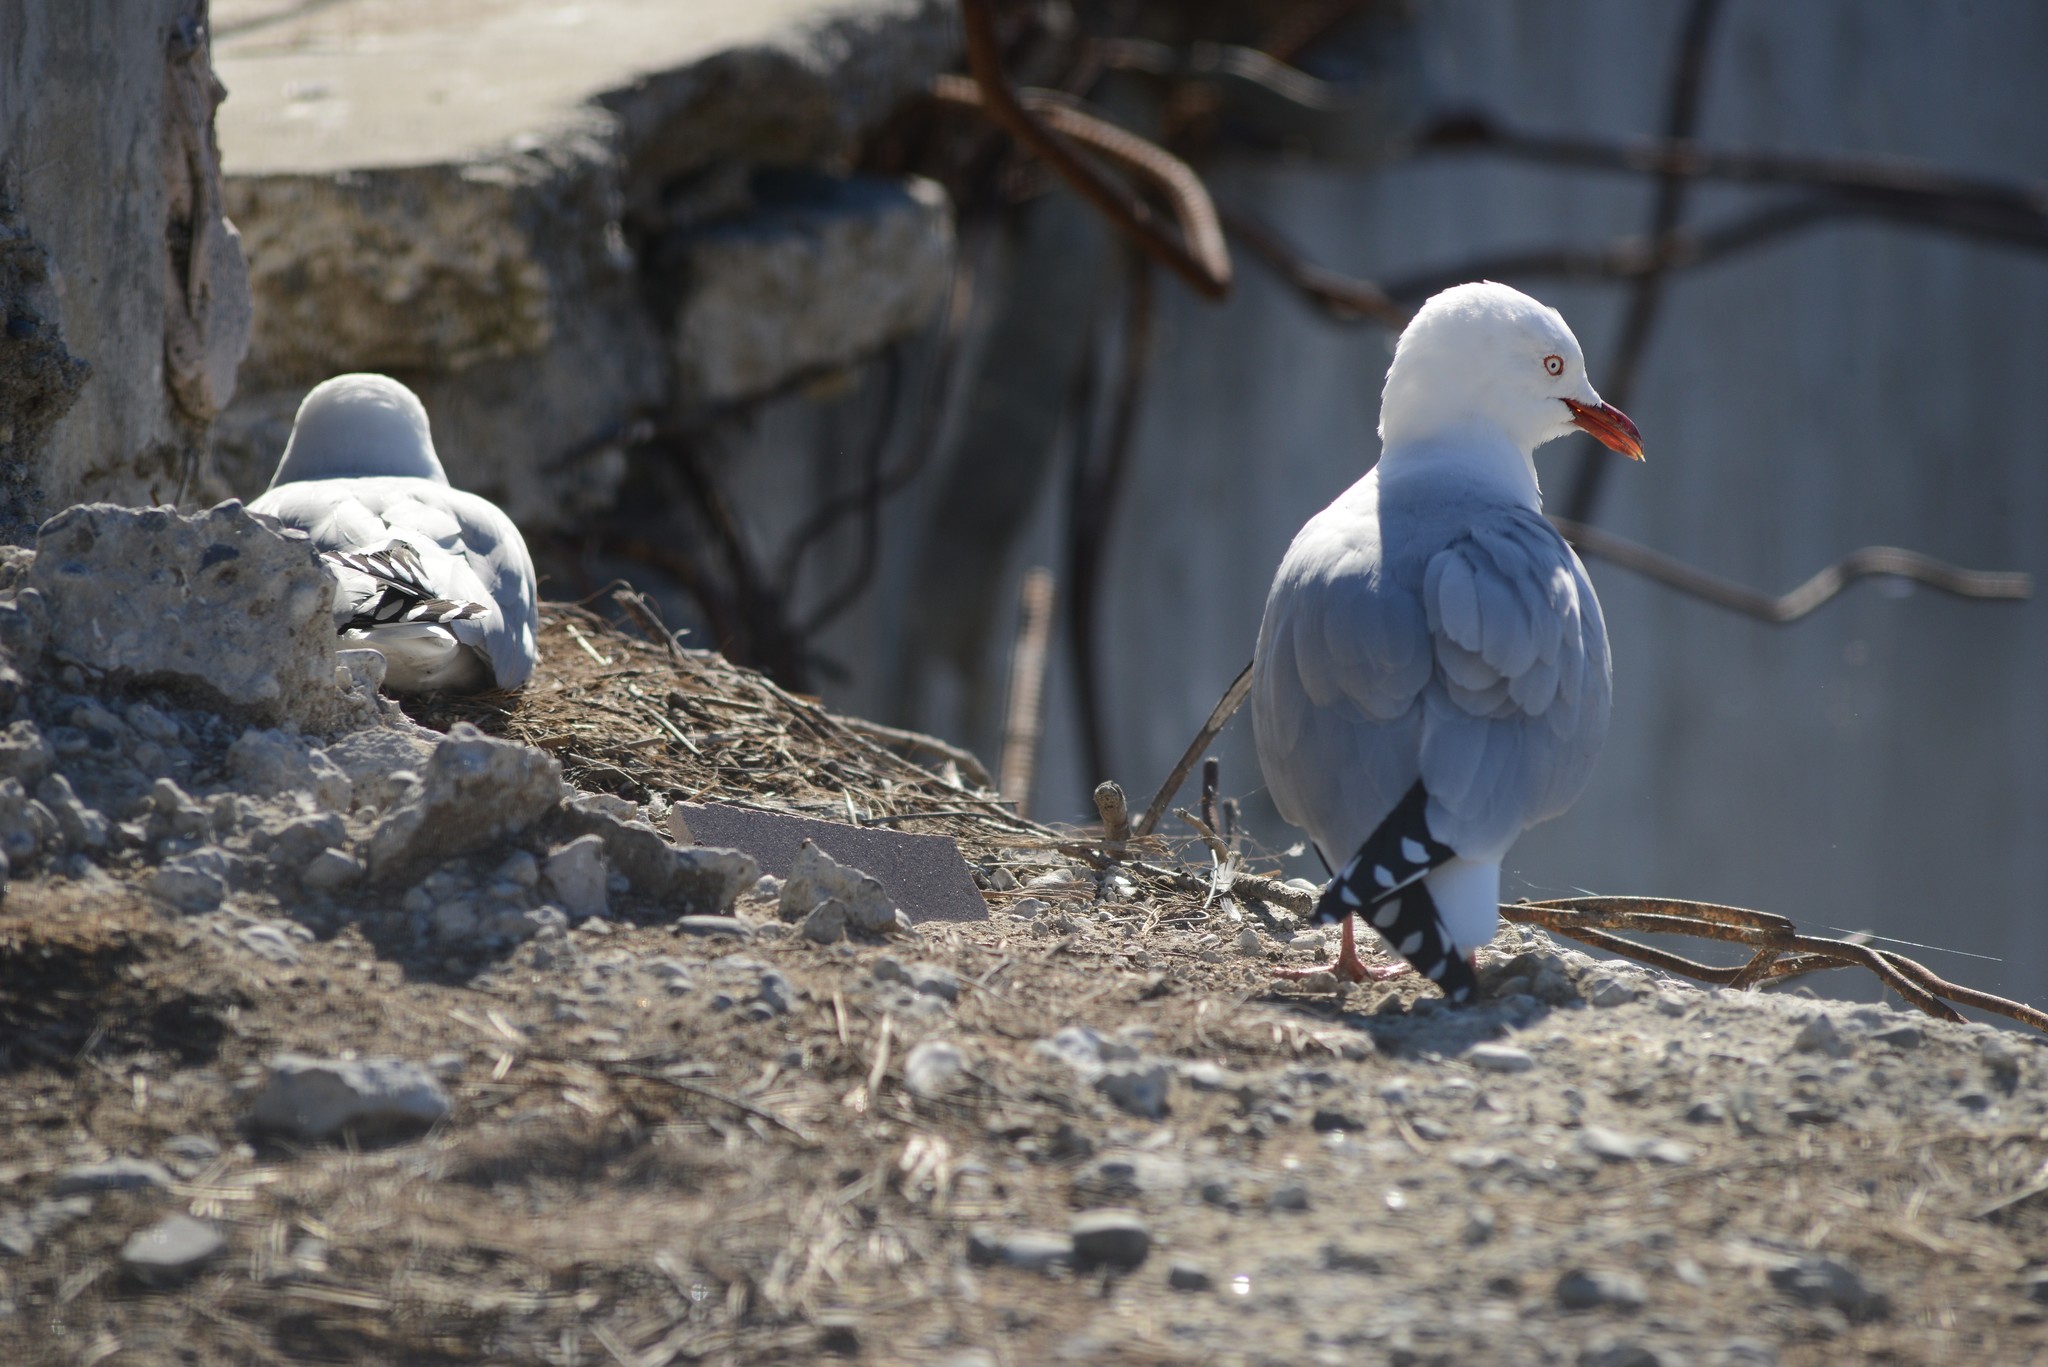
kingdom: Animalia
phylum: Chordata
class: Aves
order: Charadriiformes
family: Laridae
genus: Chroicocephalus
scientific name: Chroicocephalus novaehollandiae
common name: Silver gull
